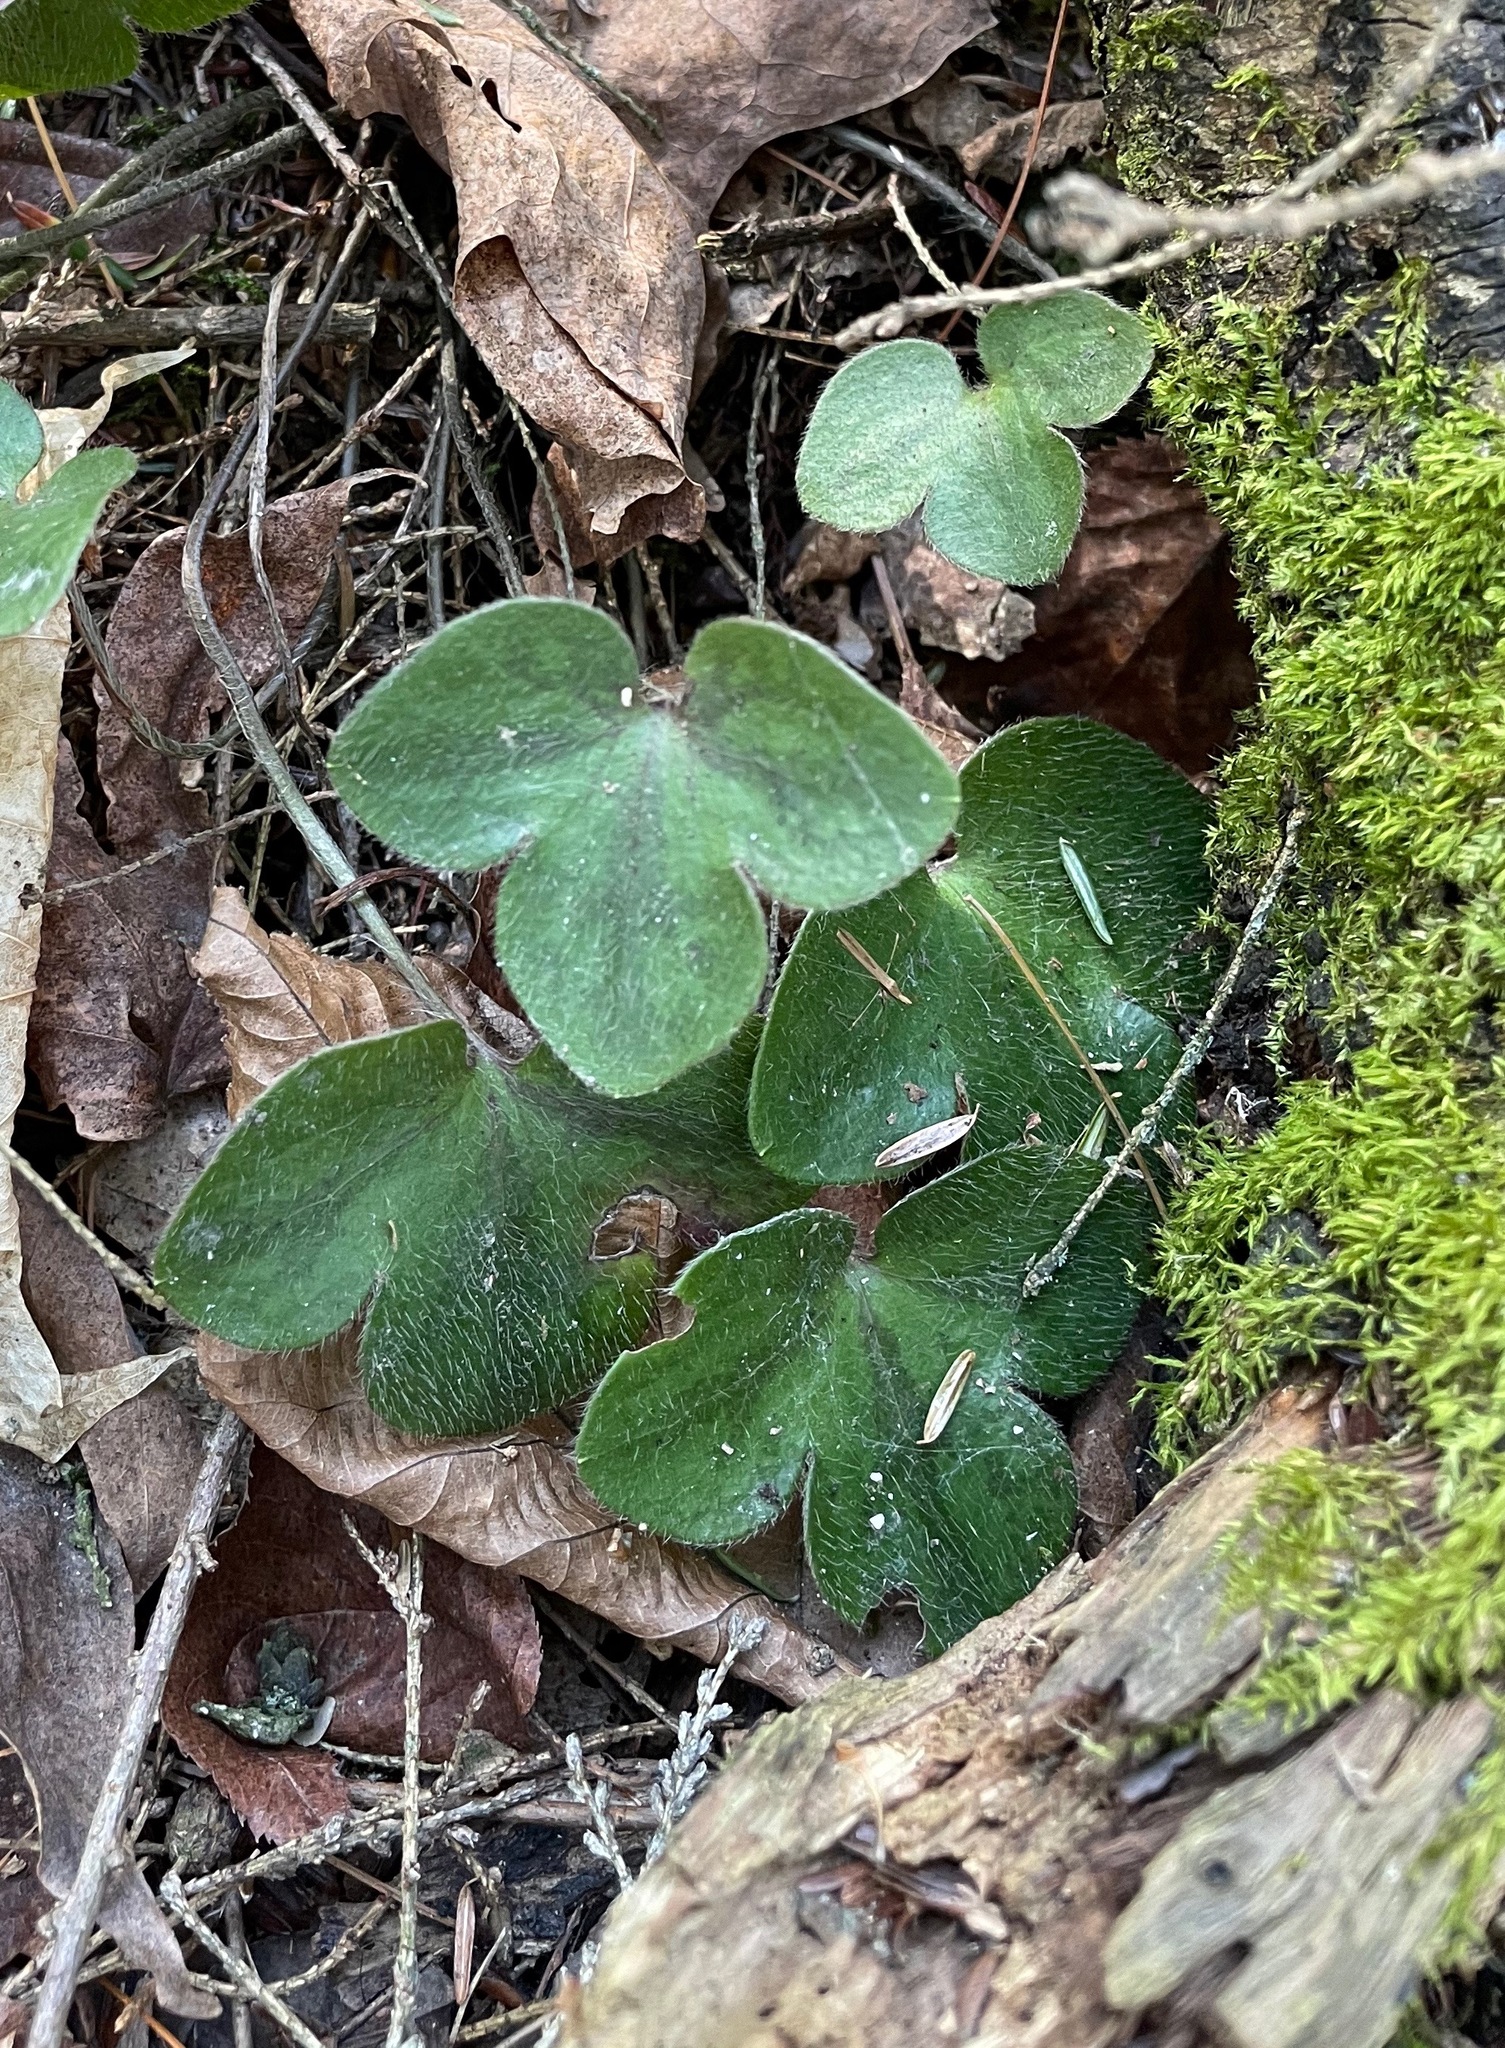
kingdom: Plantae
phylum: Tracheophyta
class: Magnoliopsida
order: Ranunculales
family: Ranunculaceae
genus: Hepatica
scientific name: Hepatica americana
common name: American hepatica
